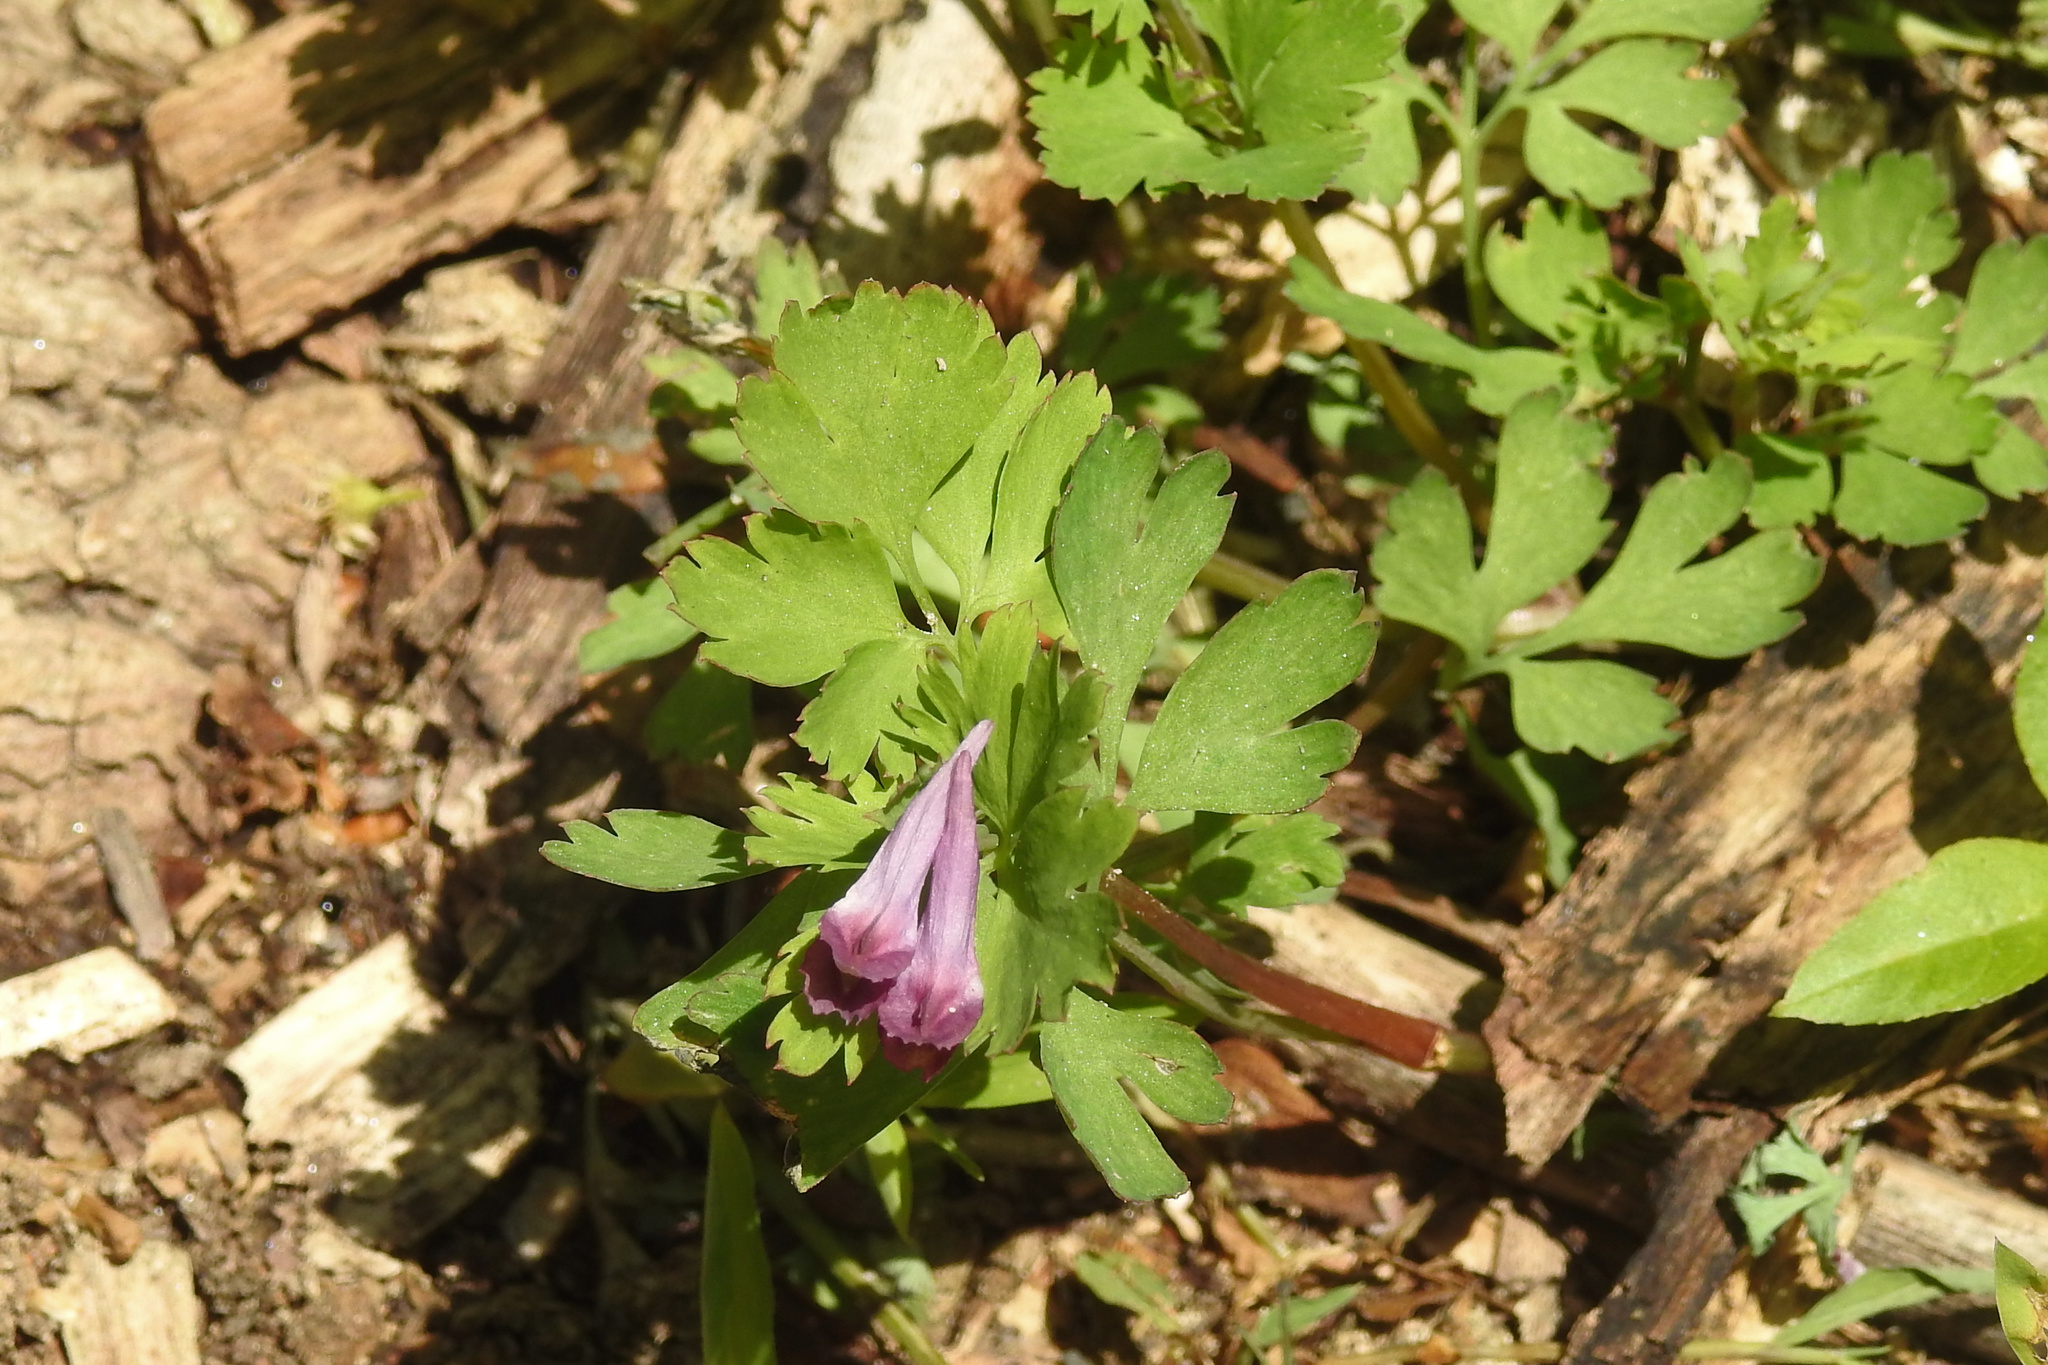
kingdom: Plantae
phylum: Tracheophyta
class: Magnoliopsida
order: Ranunculales
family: Papaveraceae
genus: Corydalis
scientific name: Corydalis incisa
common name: Incised fumewort
